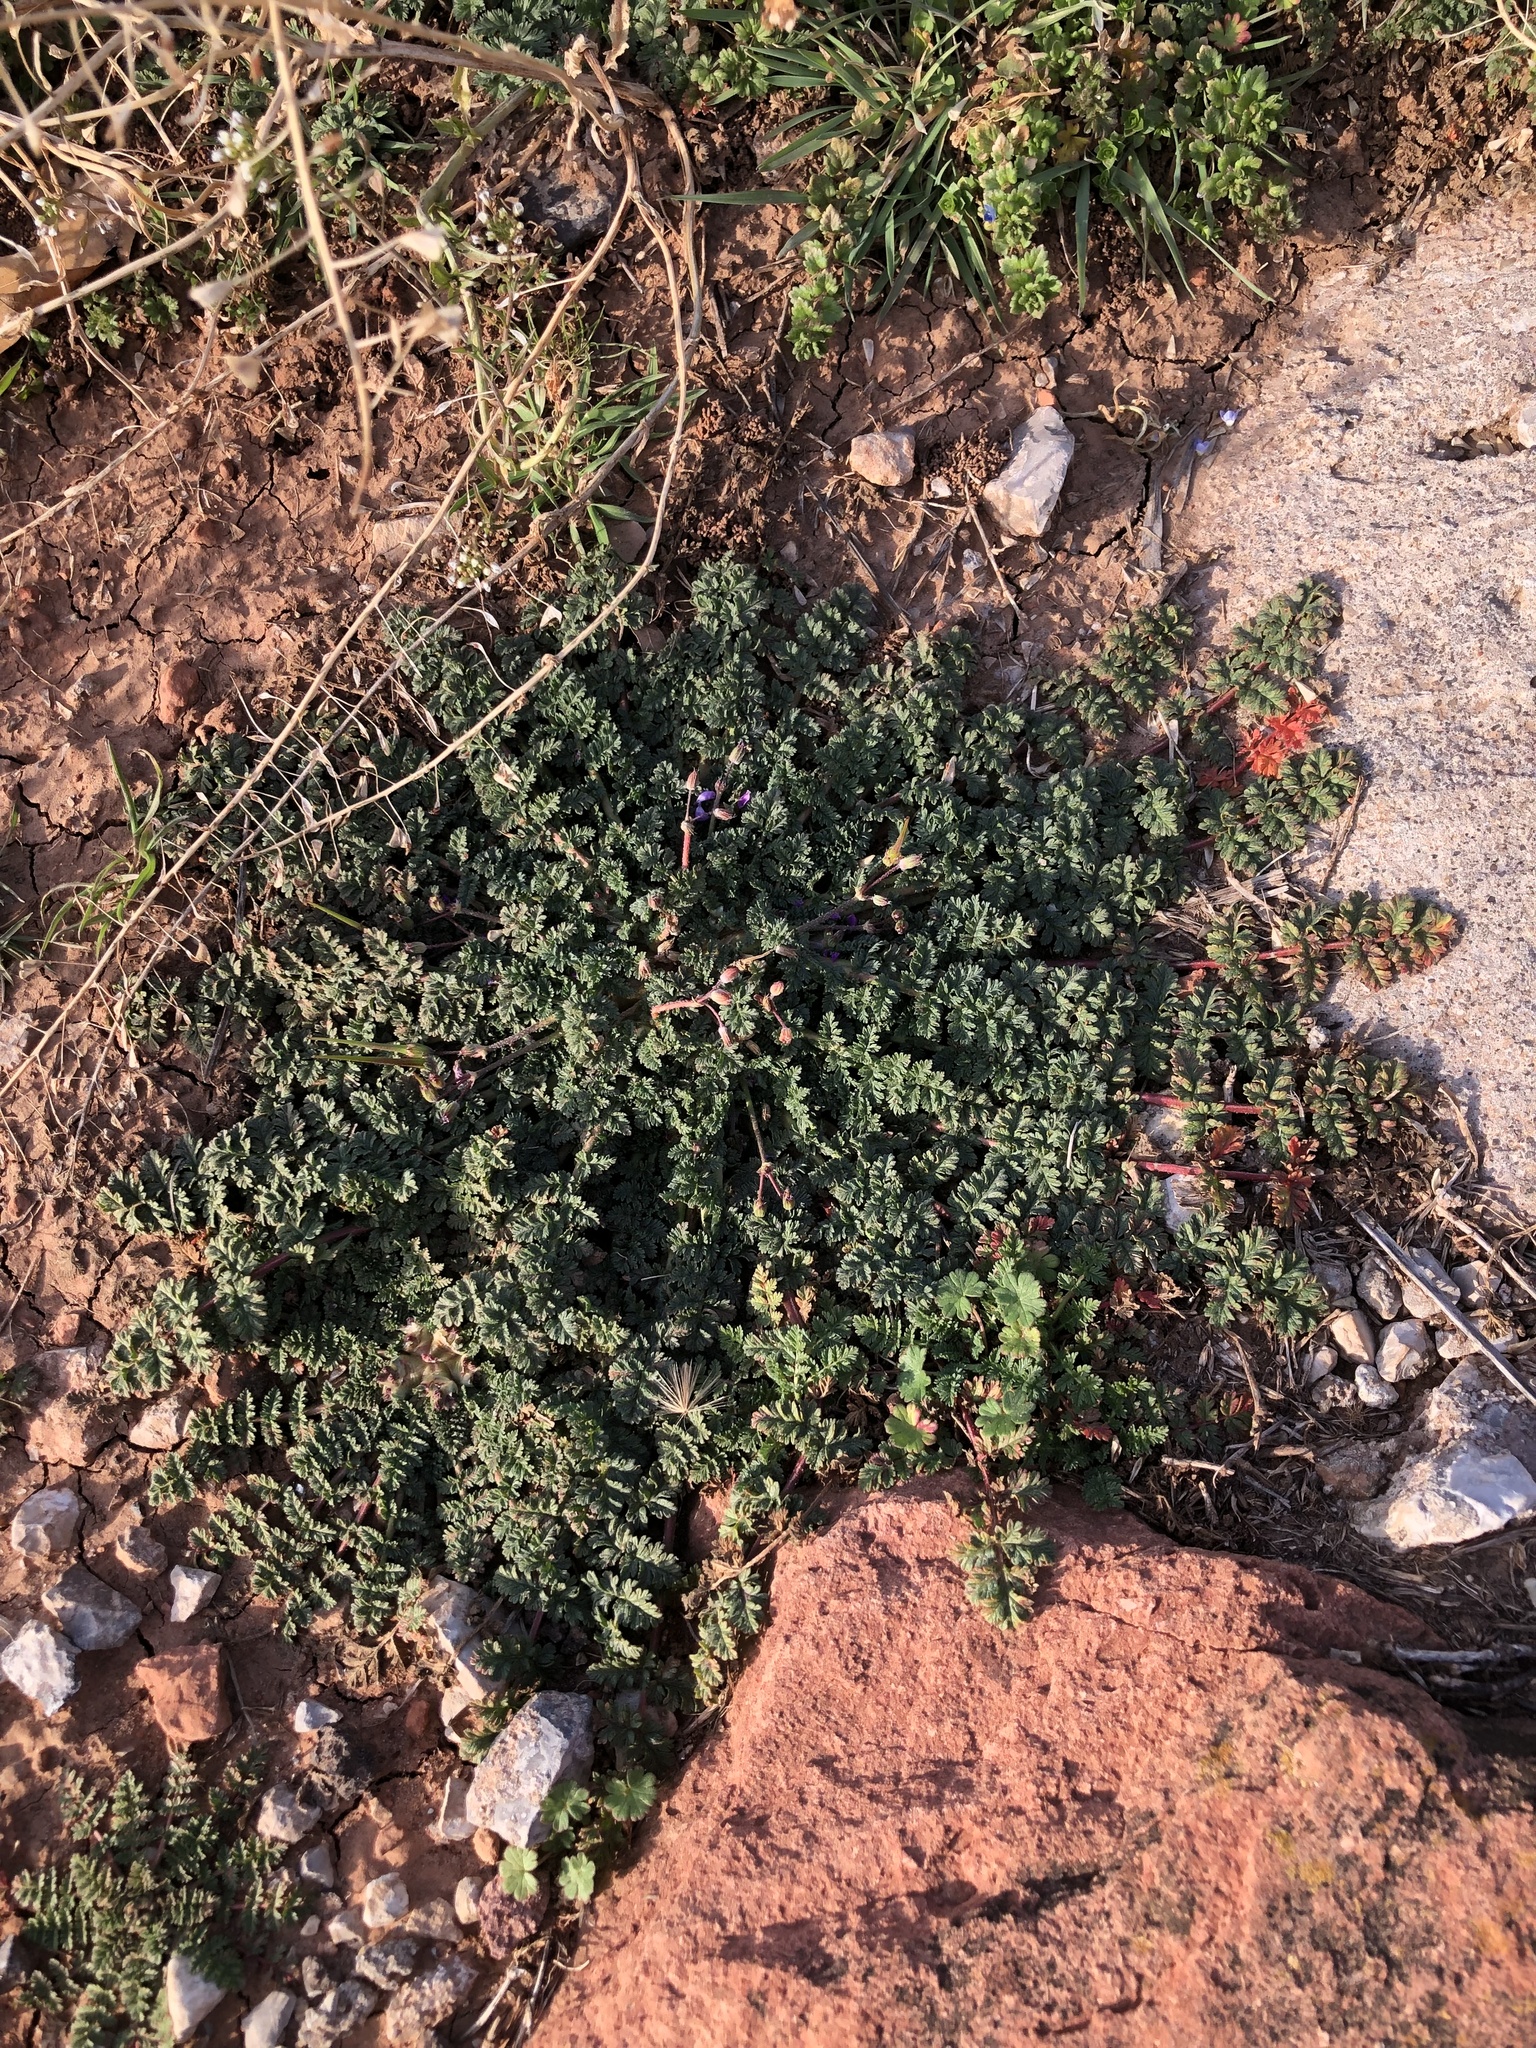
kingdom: Plantae
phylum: Tracheophyta
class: Magnoliopsida
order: Geraniales
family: Geraniaceae
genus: Erodium
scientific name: Erodium cicutarium
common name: Common stork's-bill
